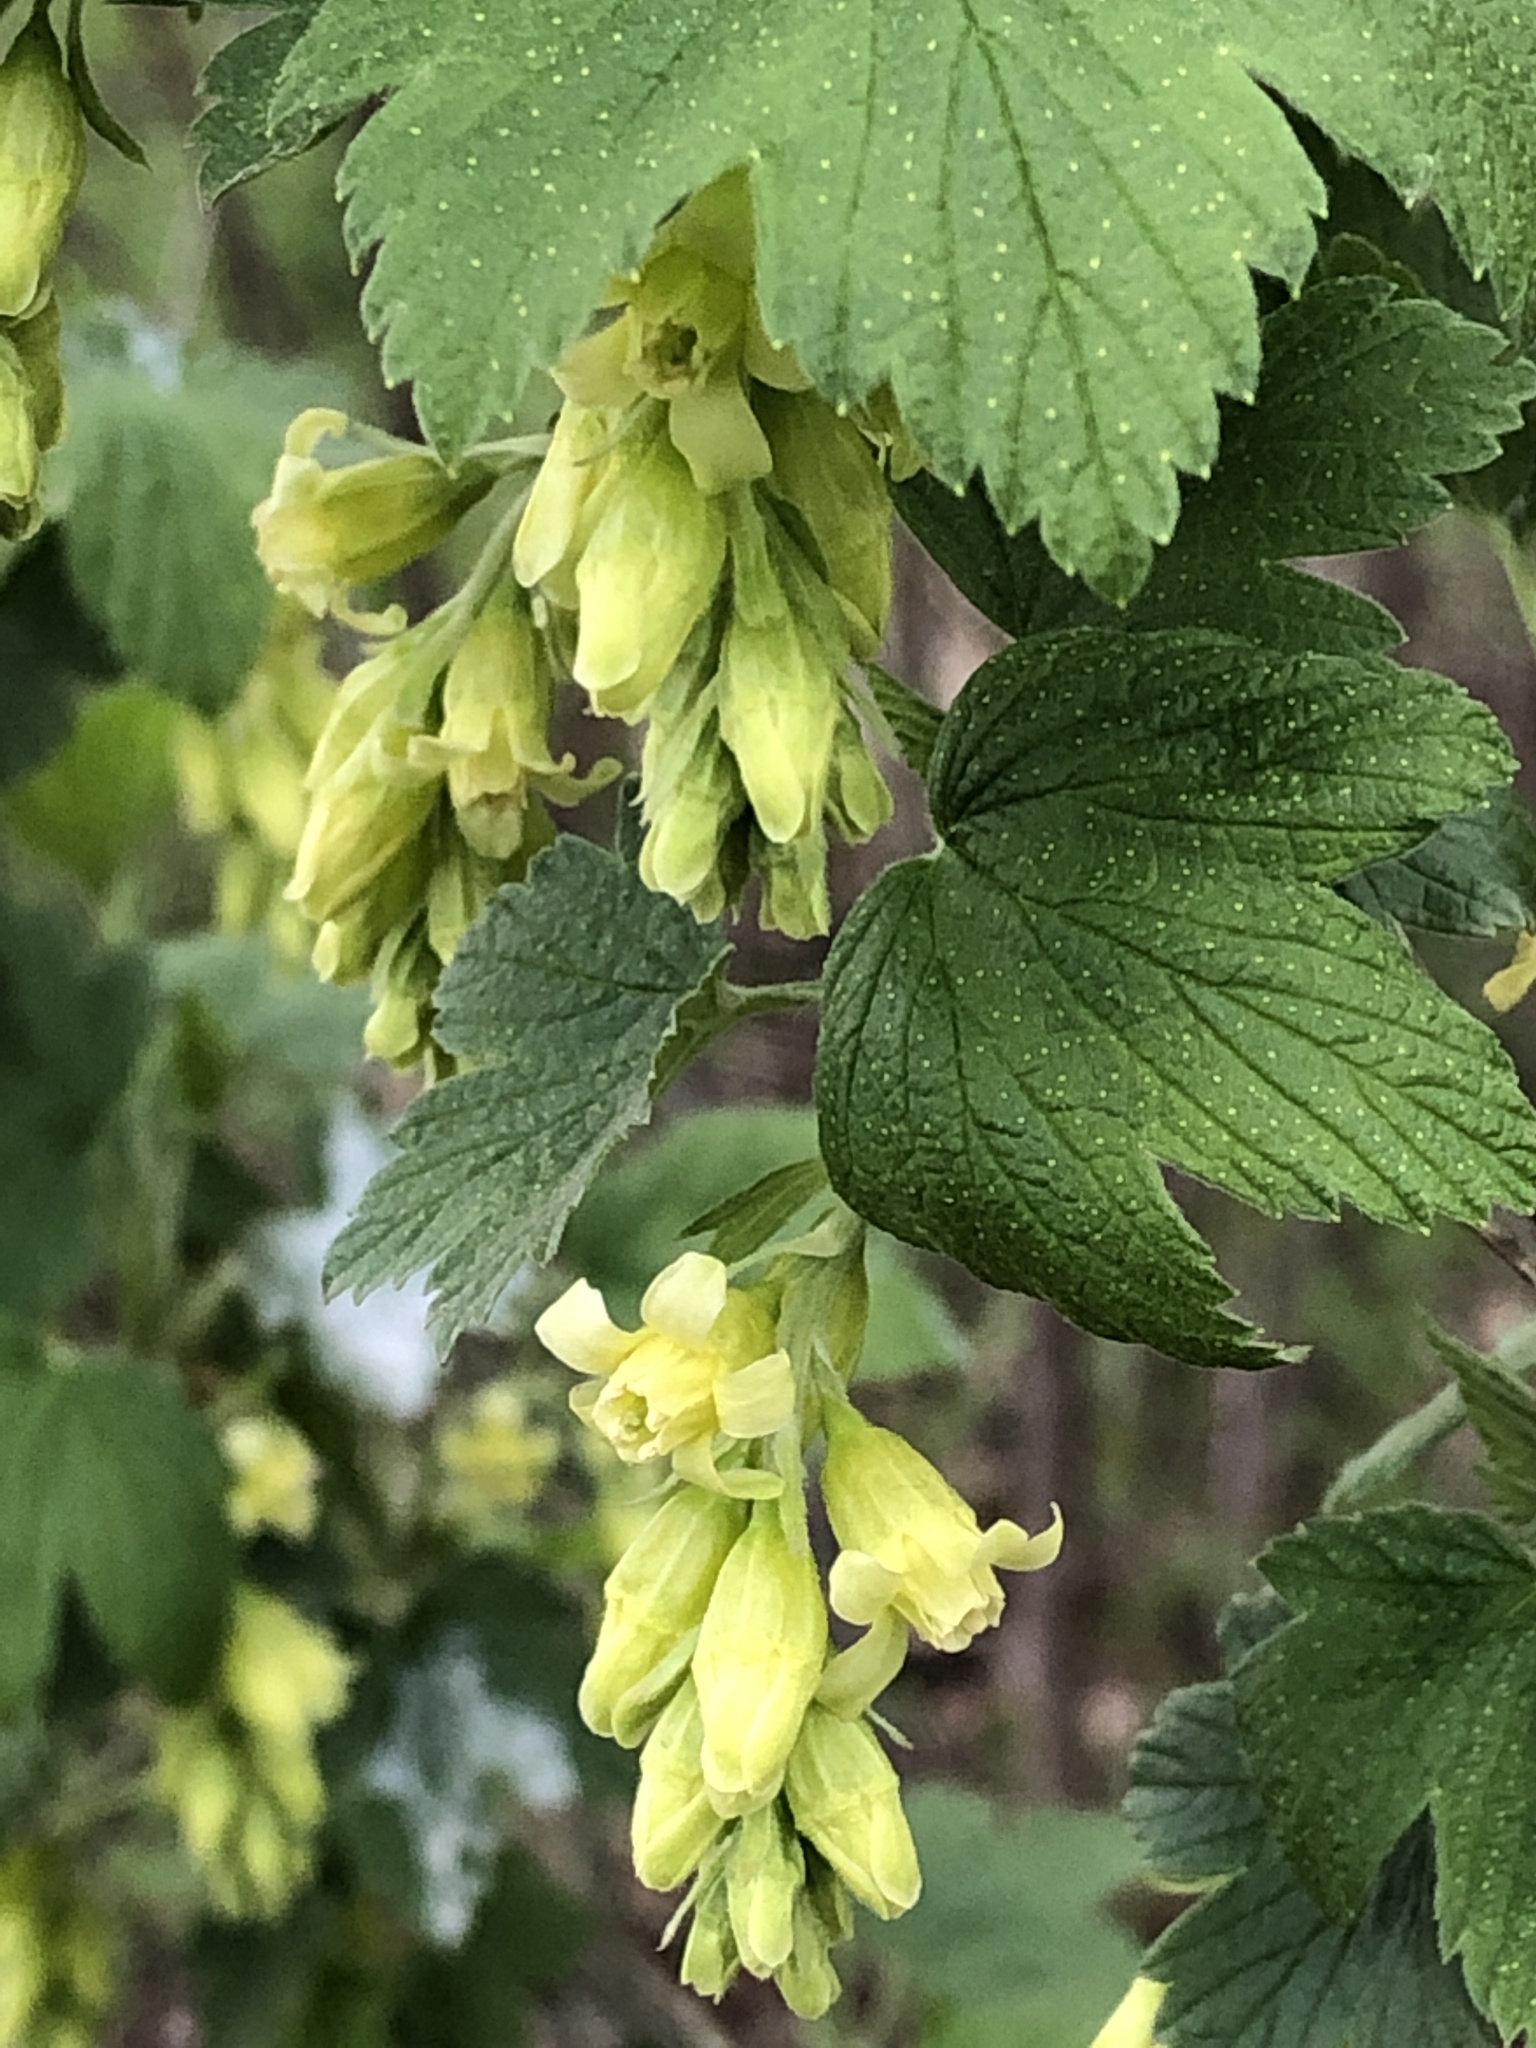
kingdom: Plantae
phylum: Tracheophyta
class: Magnoliopsida
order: Saxifragales
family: Grossulariaceae
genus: Ribes
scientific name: Ribes americanum
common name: American black currant
